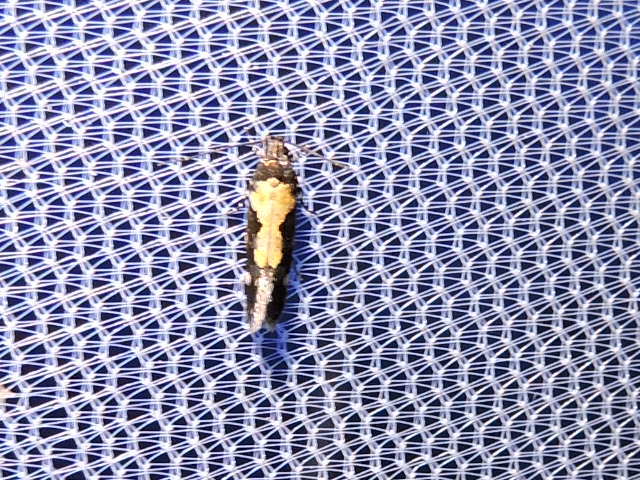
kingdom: Animalia
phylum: Arthropoda
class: Insecta
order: Lepidoptera
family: Gelechiidae
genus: Stegasta
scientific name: Stegasta bosqueella
